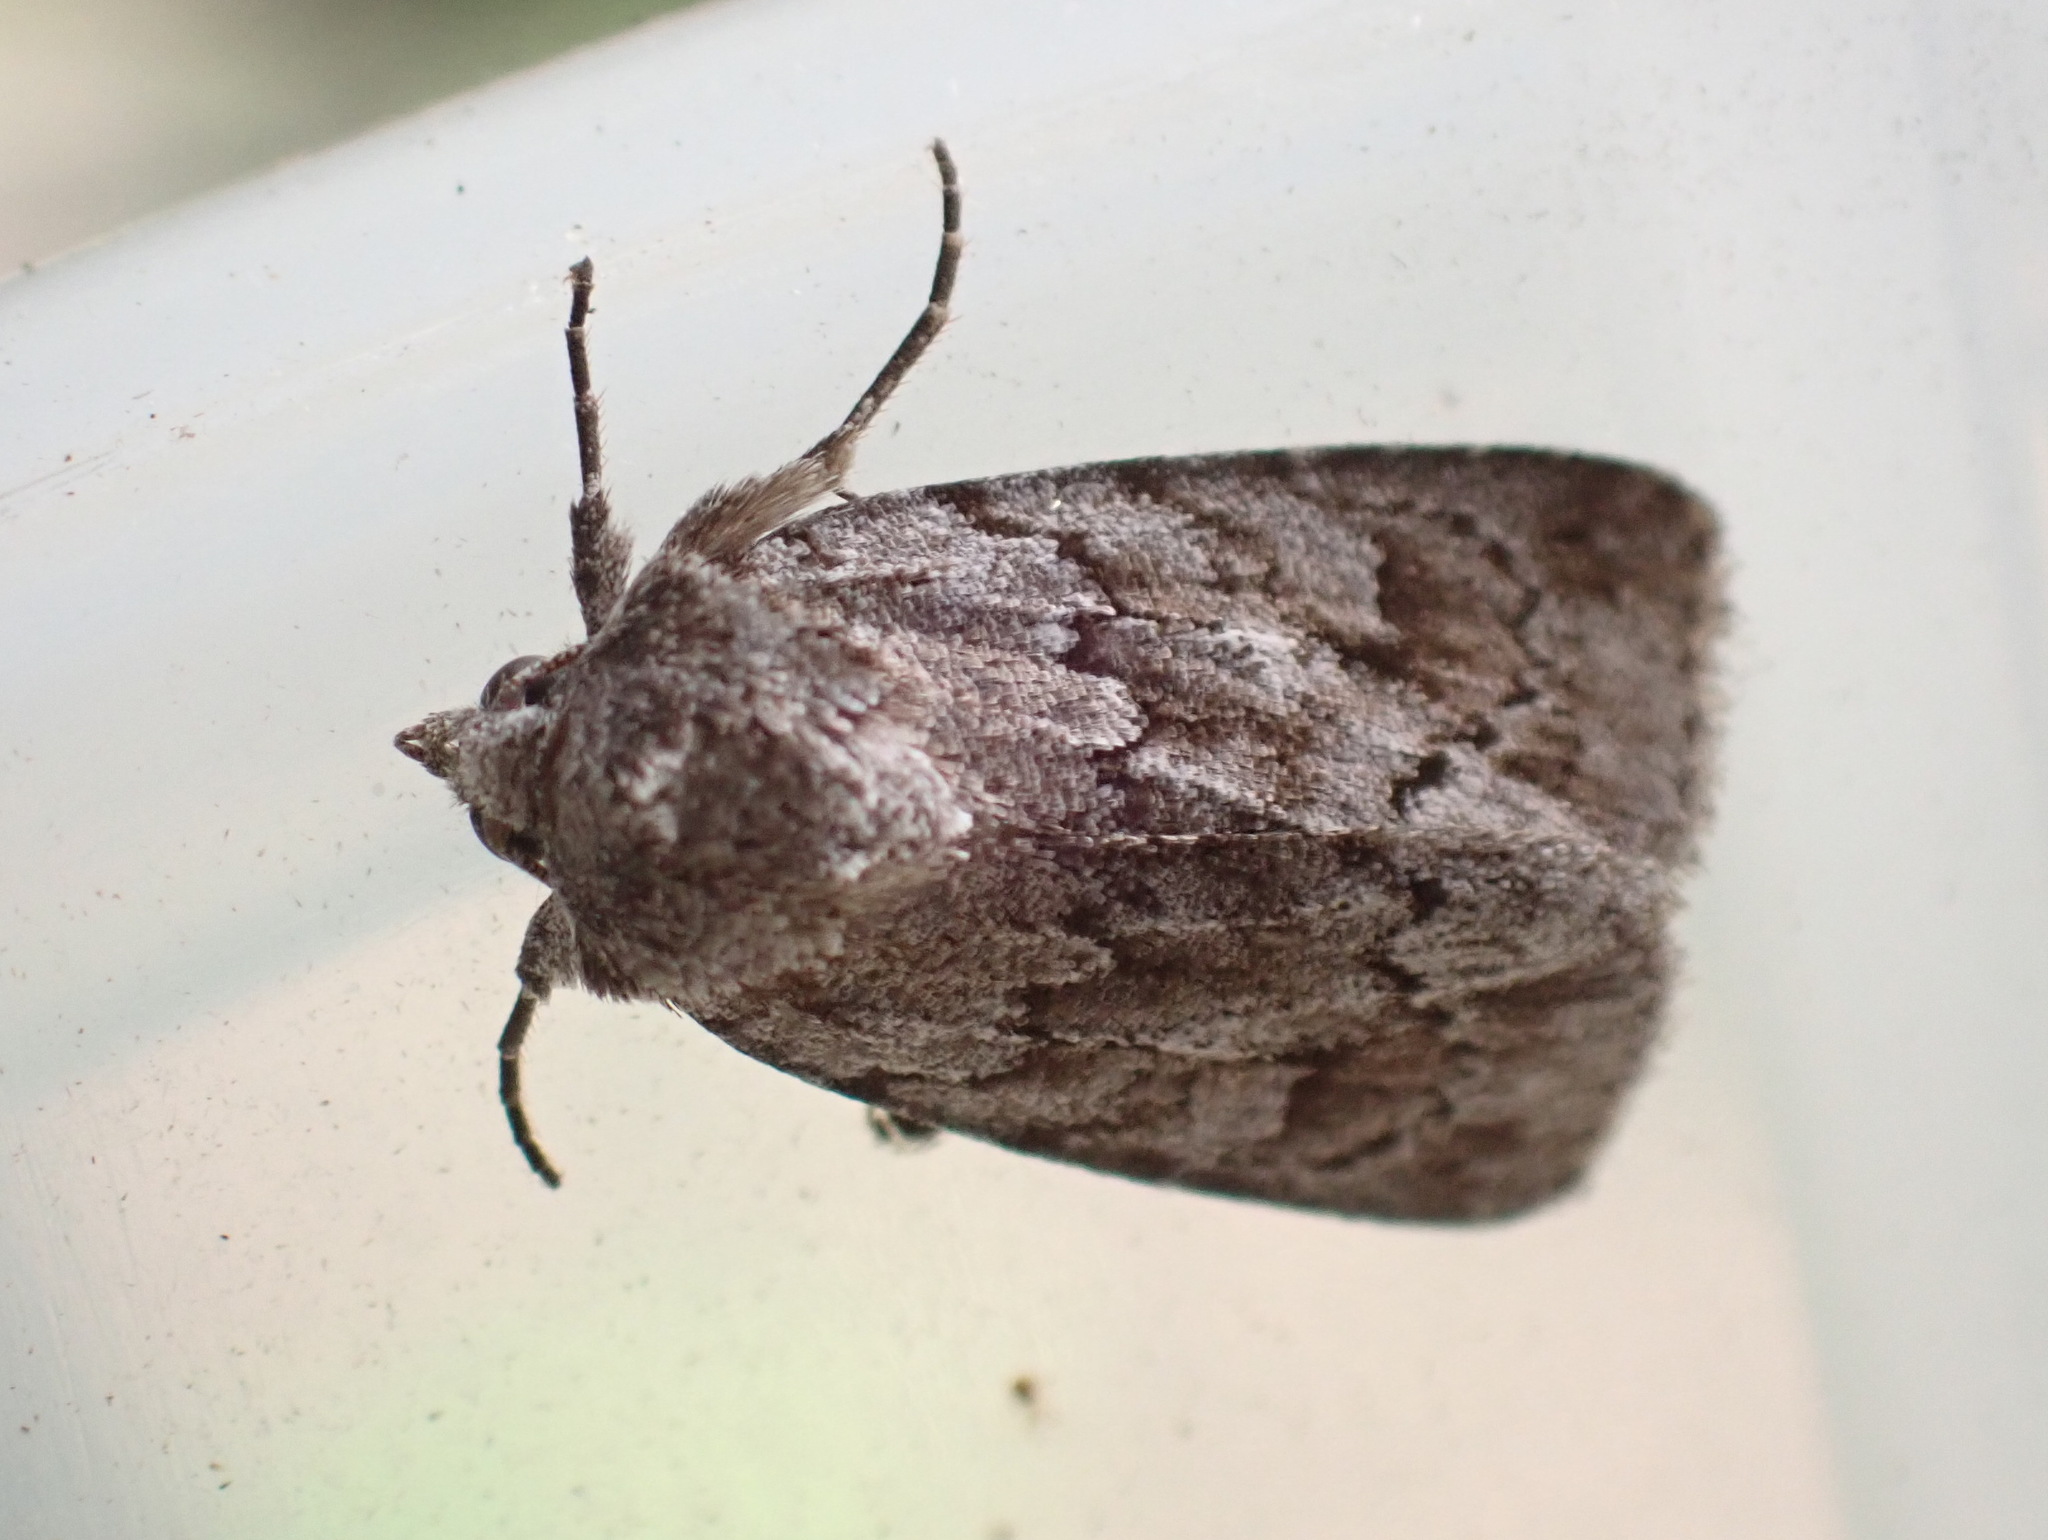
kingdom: Animalia
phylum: Arthropoda
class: Insecta
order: Lepidoptera
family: Noctuidae
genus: Sympistis
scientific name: Sympistis dentata
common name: Blueberry sallow
